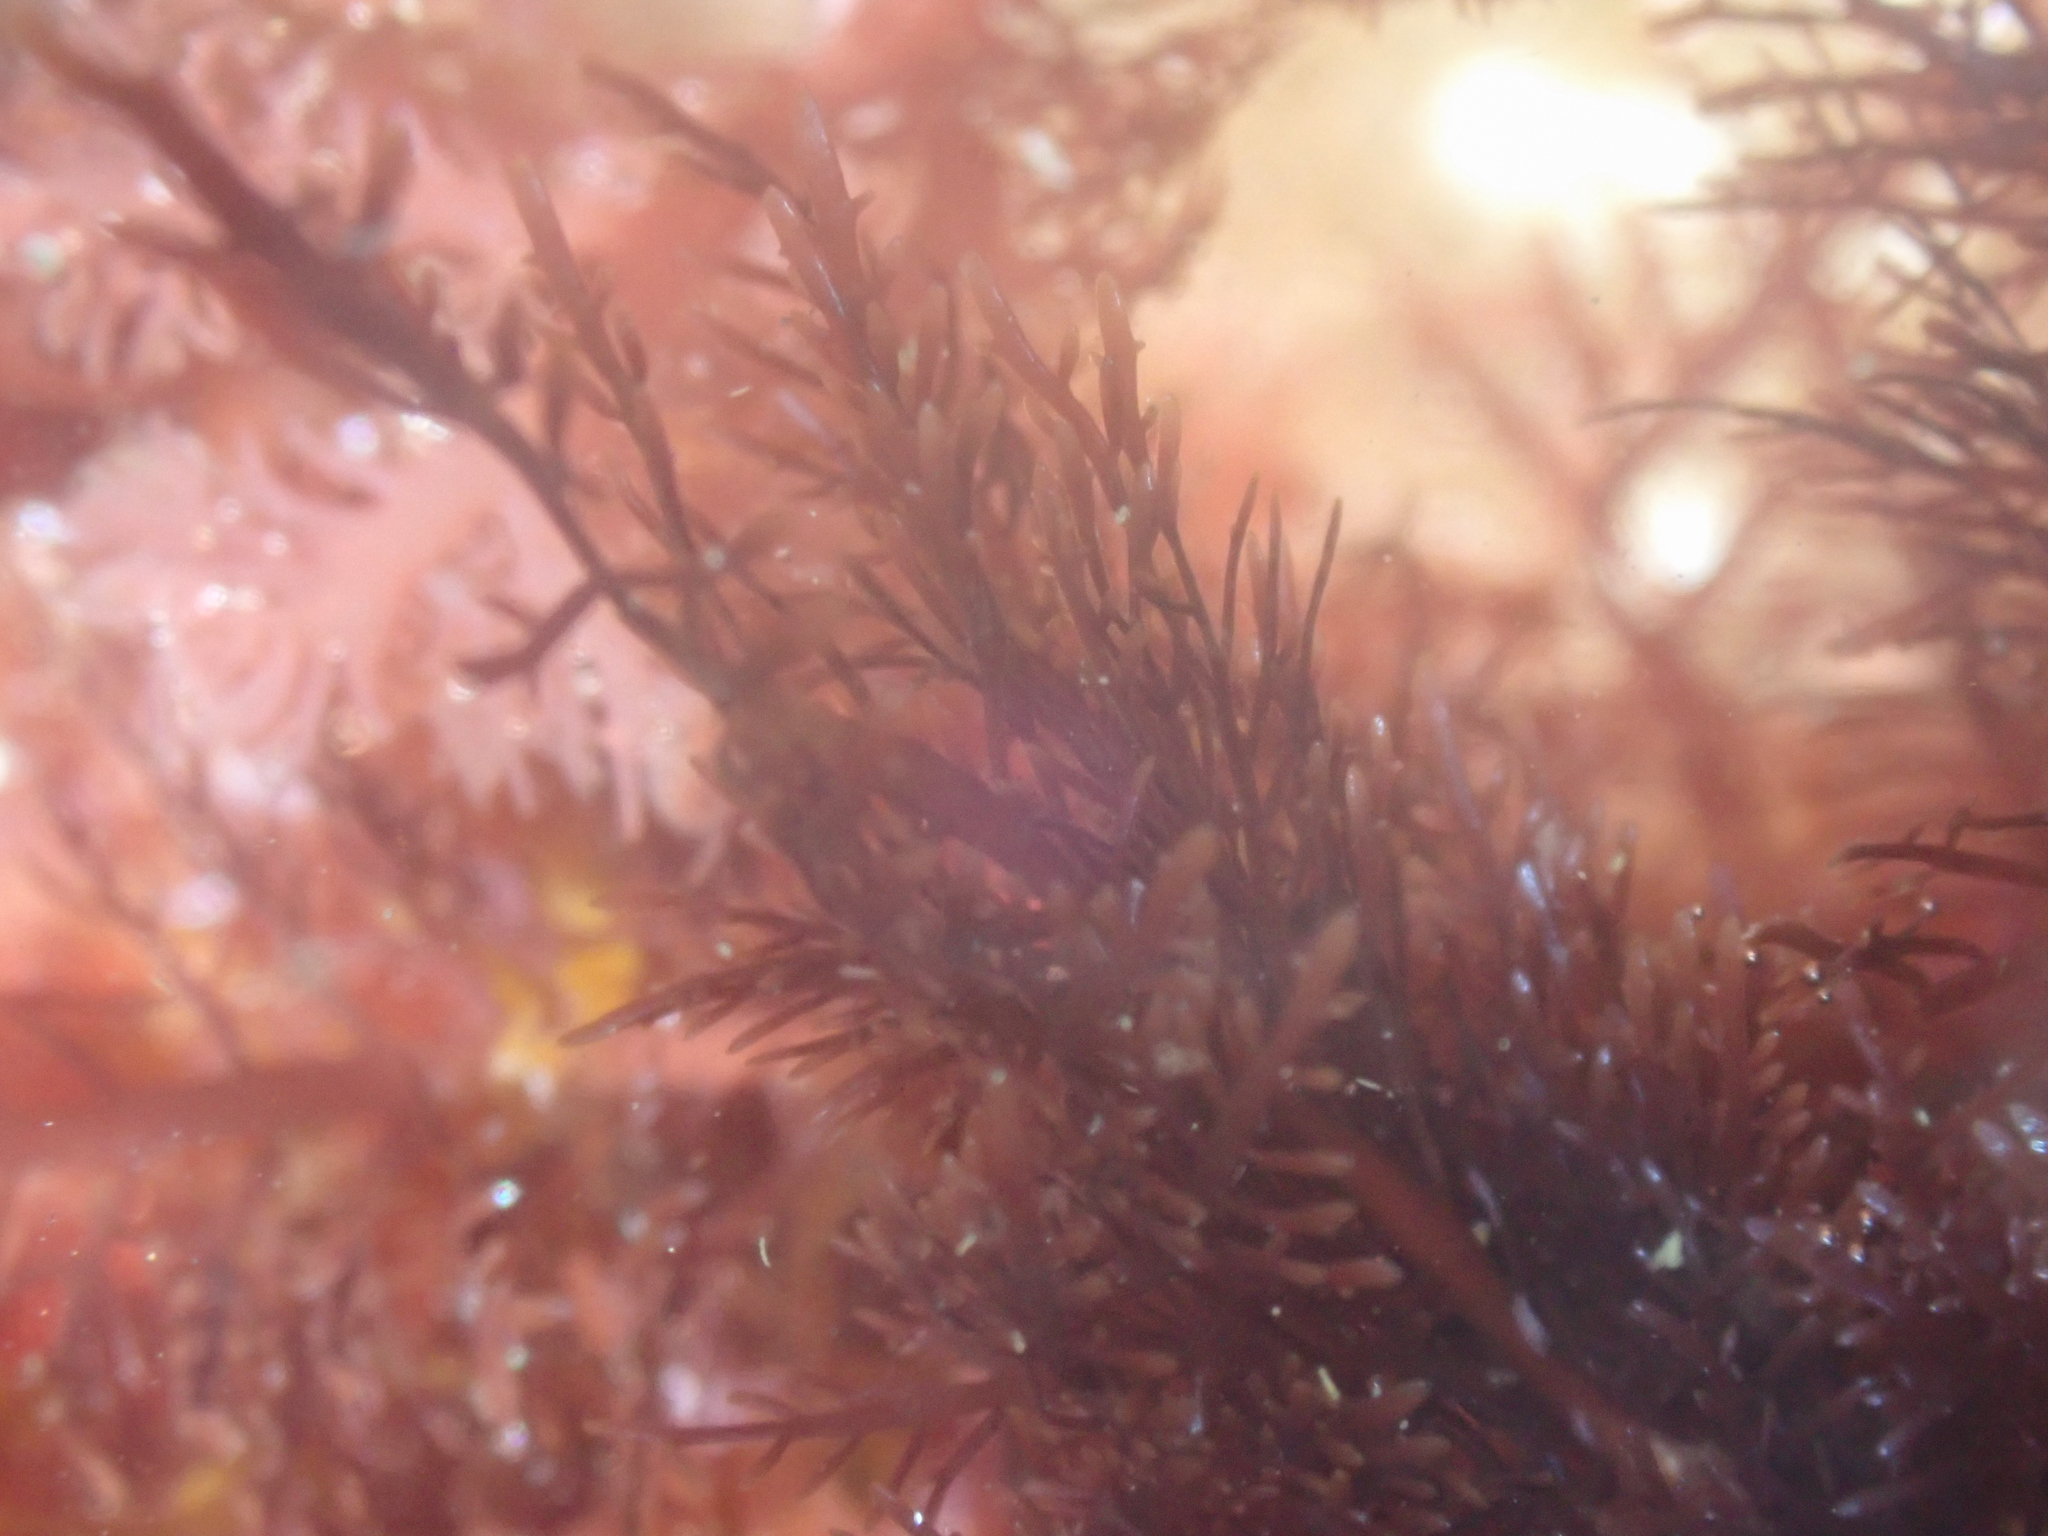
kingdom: Plantae
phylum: Rhodophyta
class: Florideophyceae
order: Gelidiales
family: Pterocladiaceae
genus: Pterocladiella
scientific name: Pterocladiella capillacea
